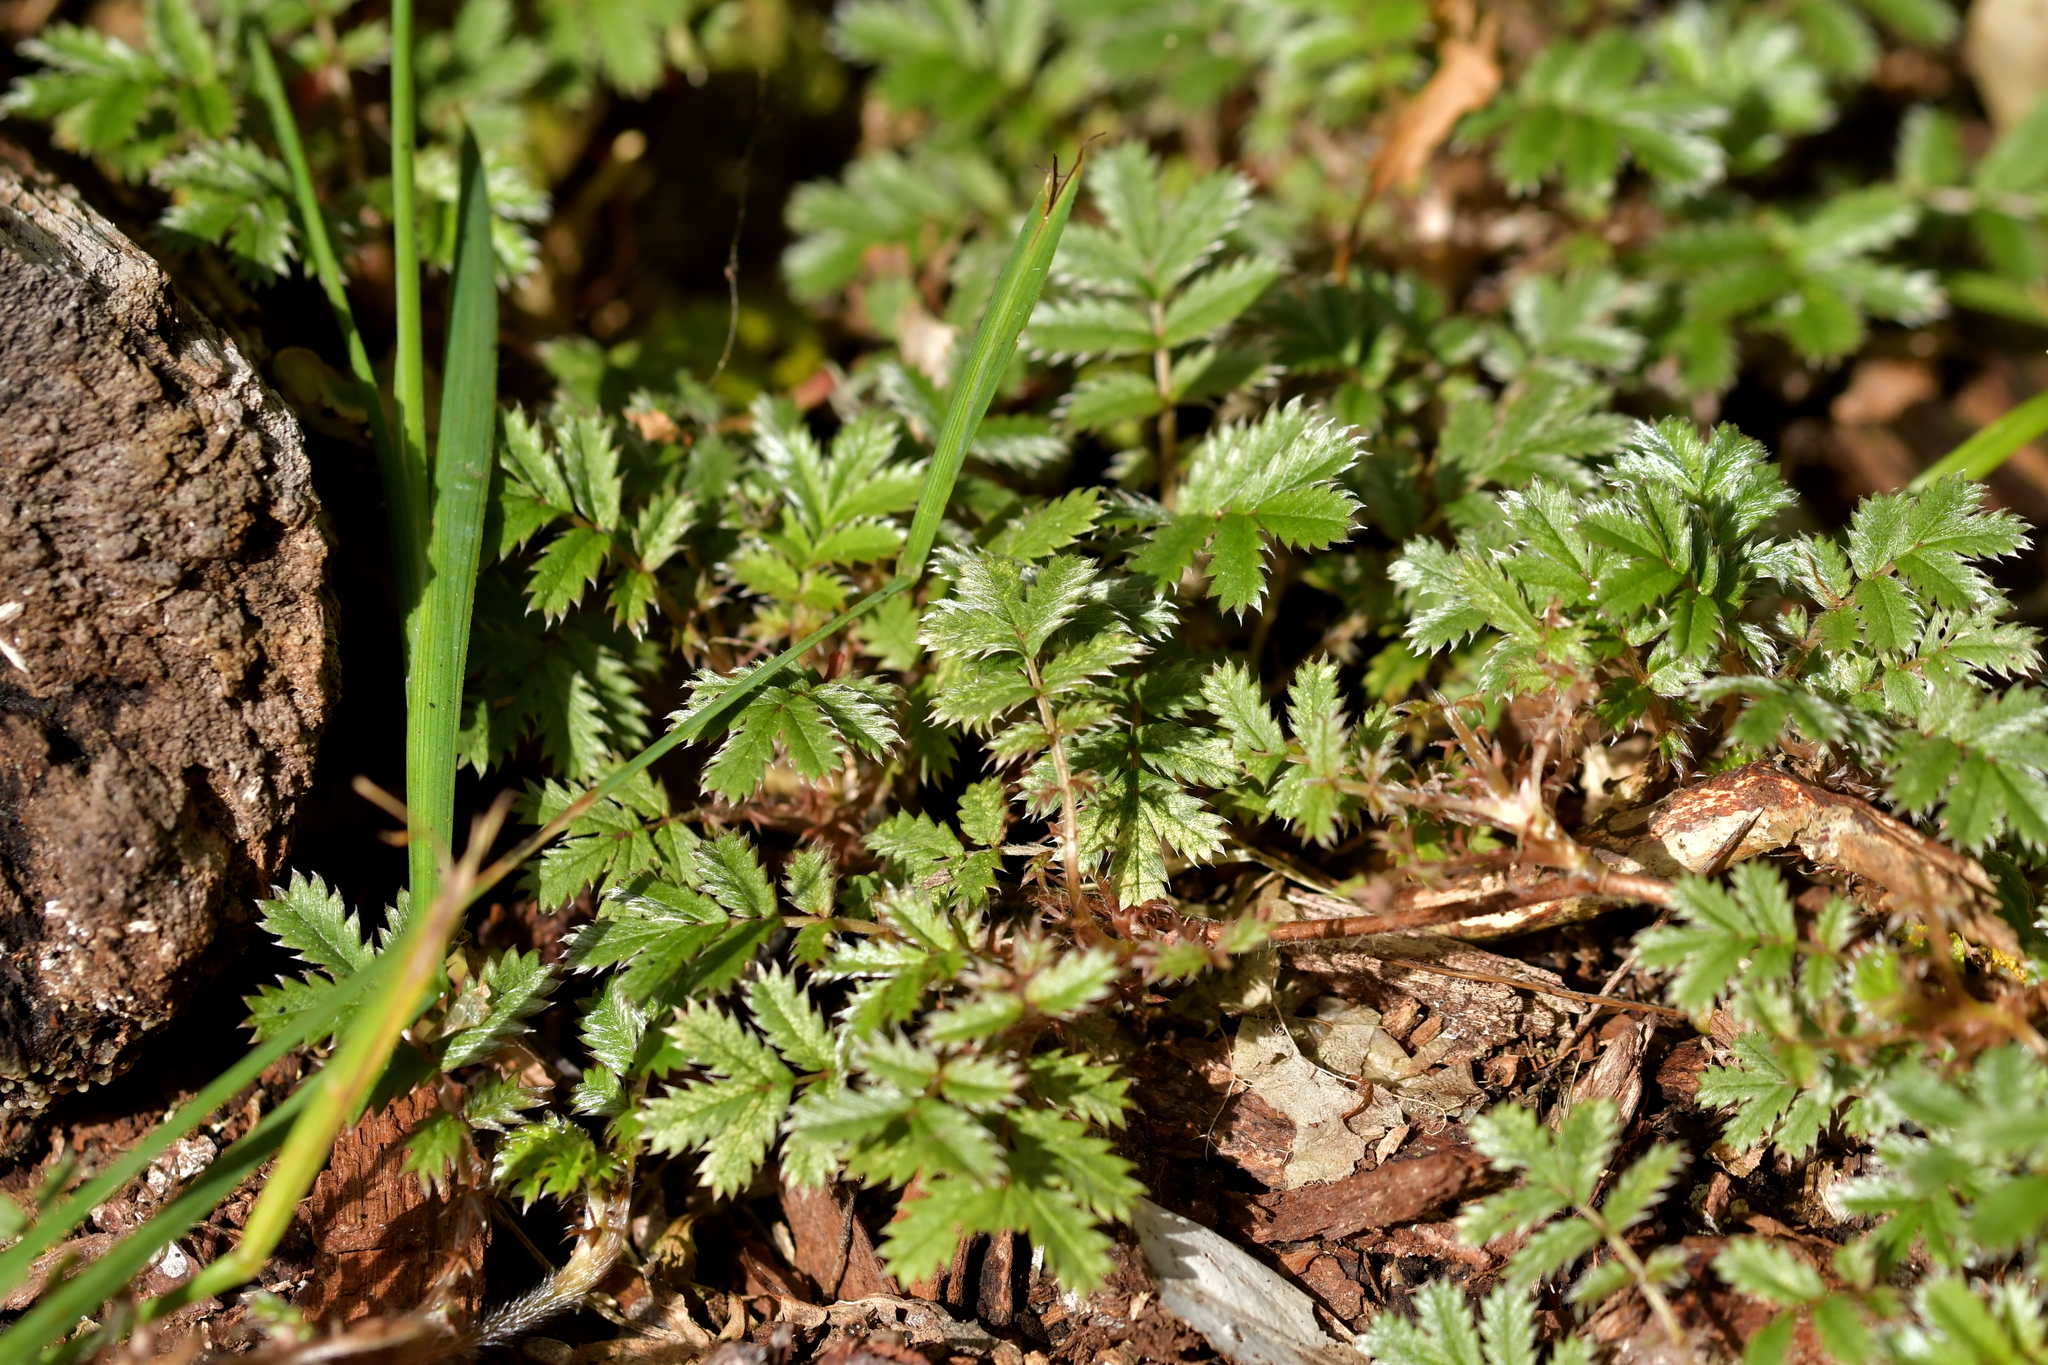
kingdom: Plantae
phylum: Tracheophyta
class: Magnoliopsida
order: Rosales
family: Rosaceae
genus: Acaena
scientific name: Acaena anserinifolia
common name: Bronze pirri-pirri-bur
